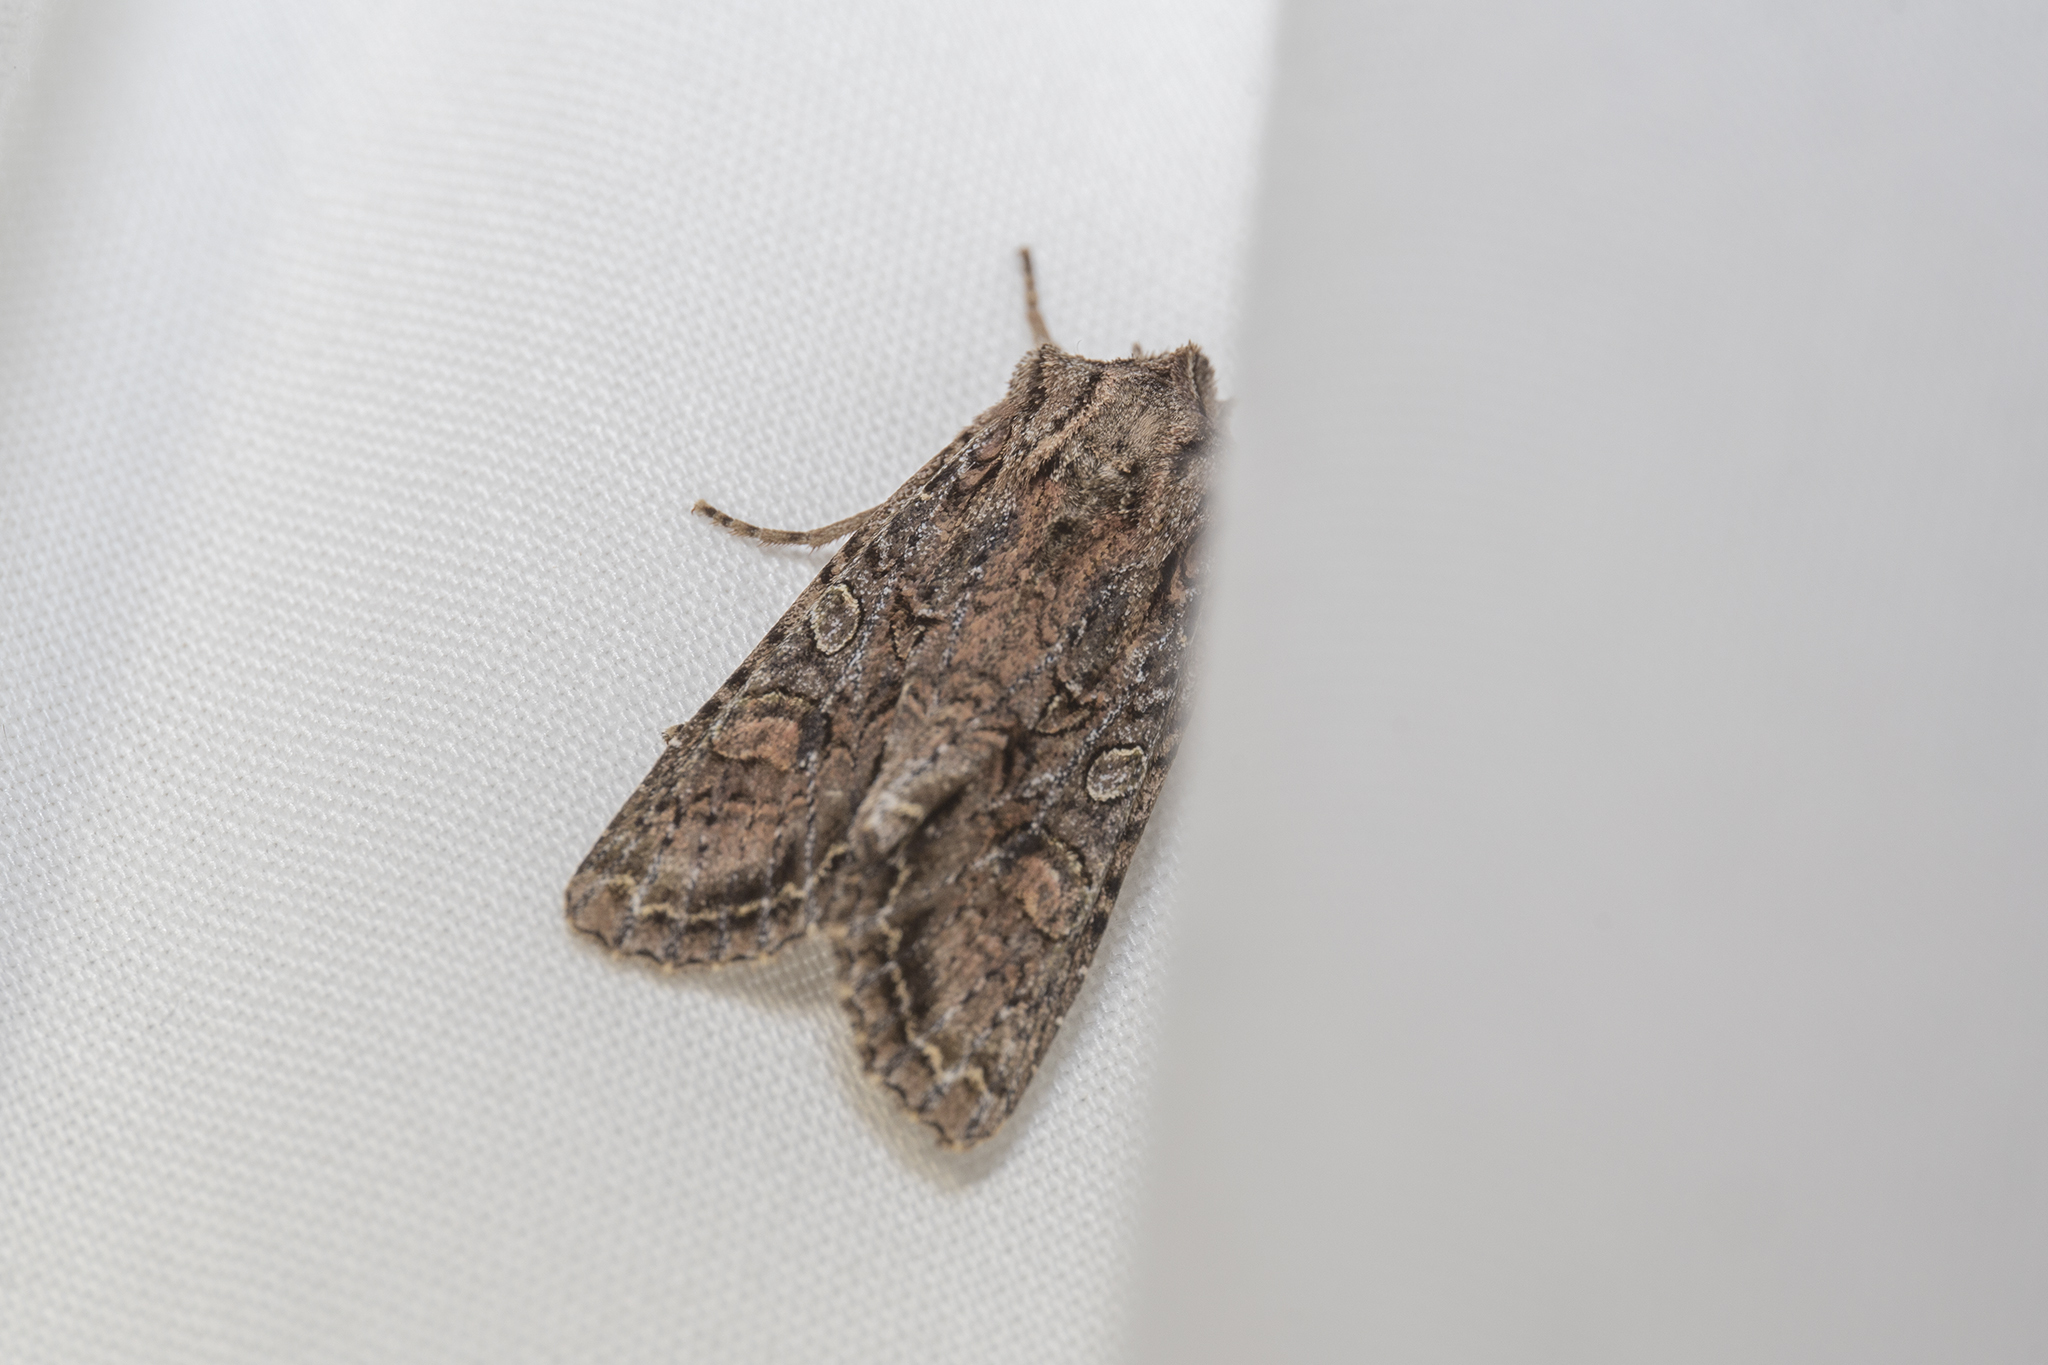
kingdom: Animalia
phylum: Arthropoda
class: Insecta
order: Lepidoptera
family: Noctuidae
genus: Ichneutica
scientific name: Ichneutica mutans
